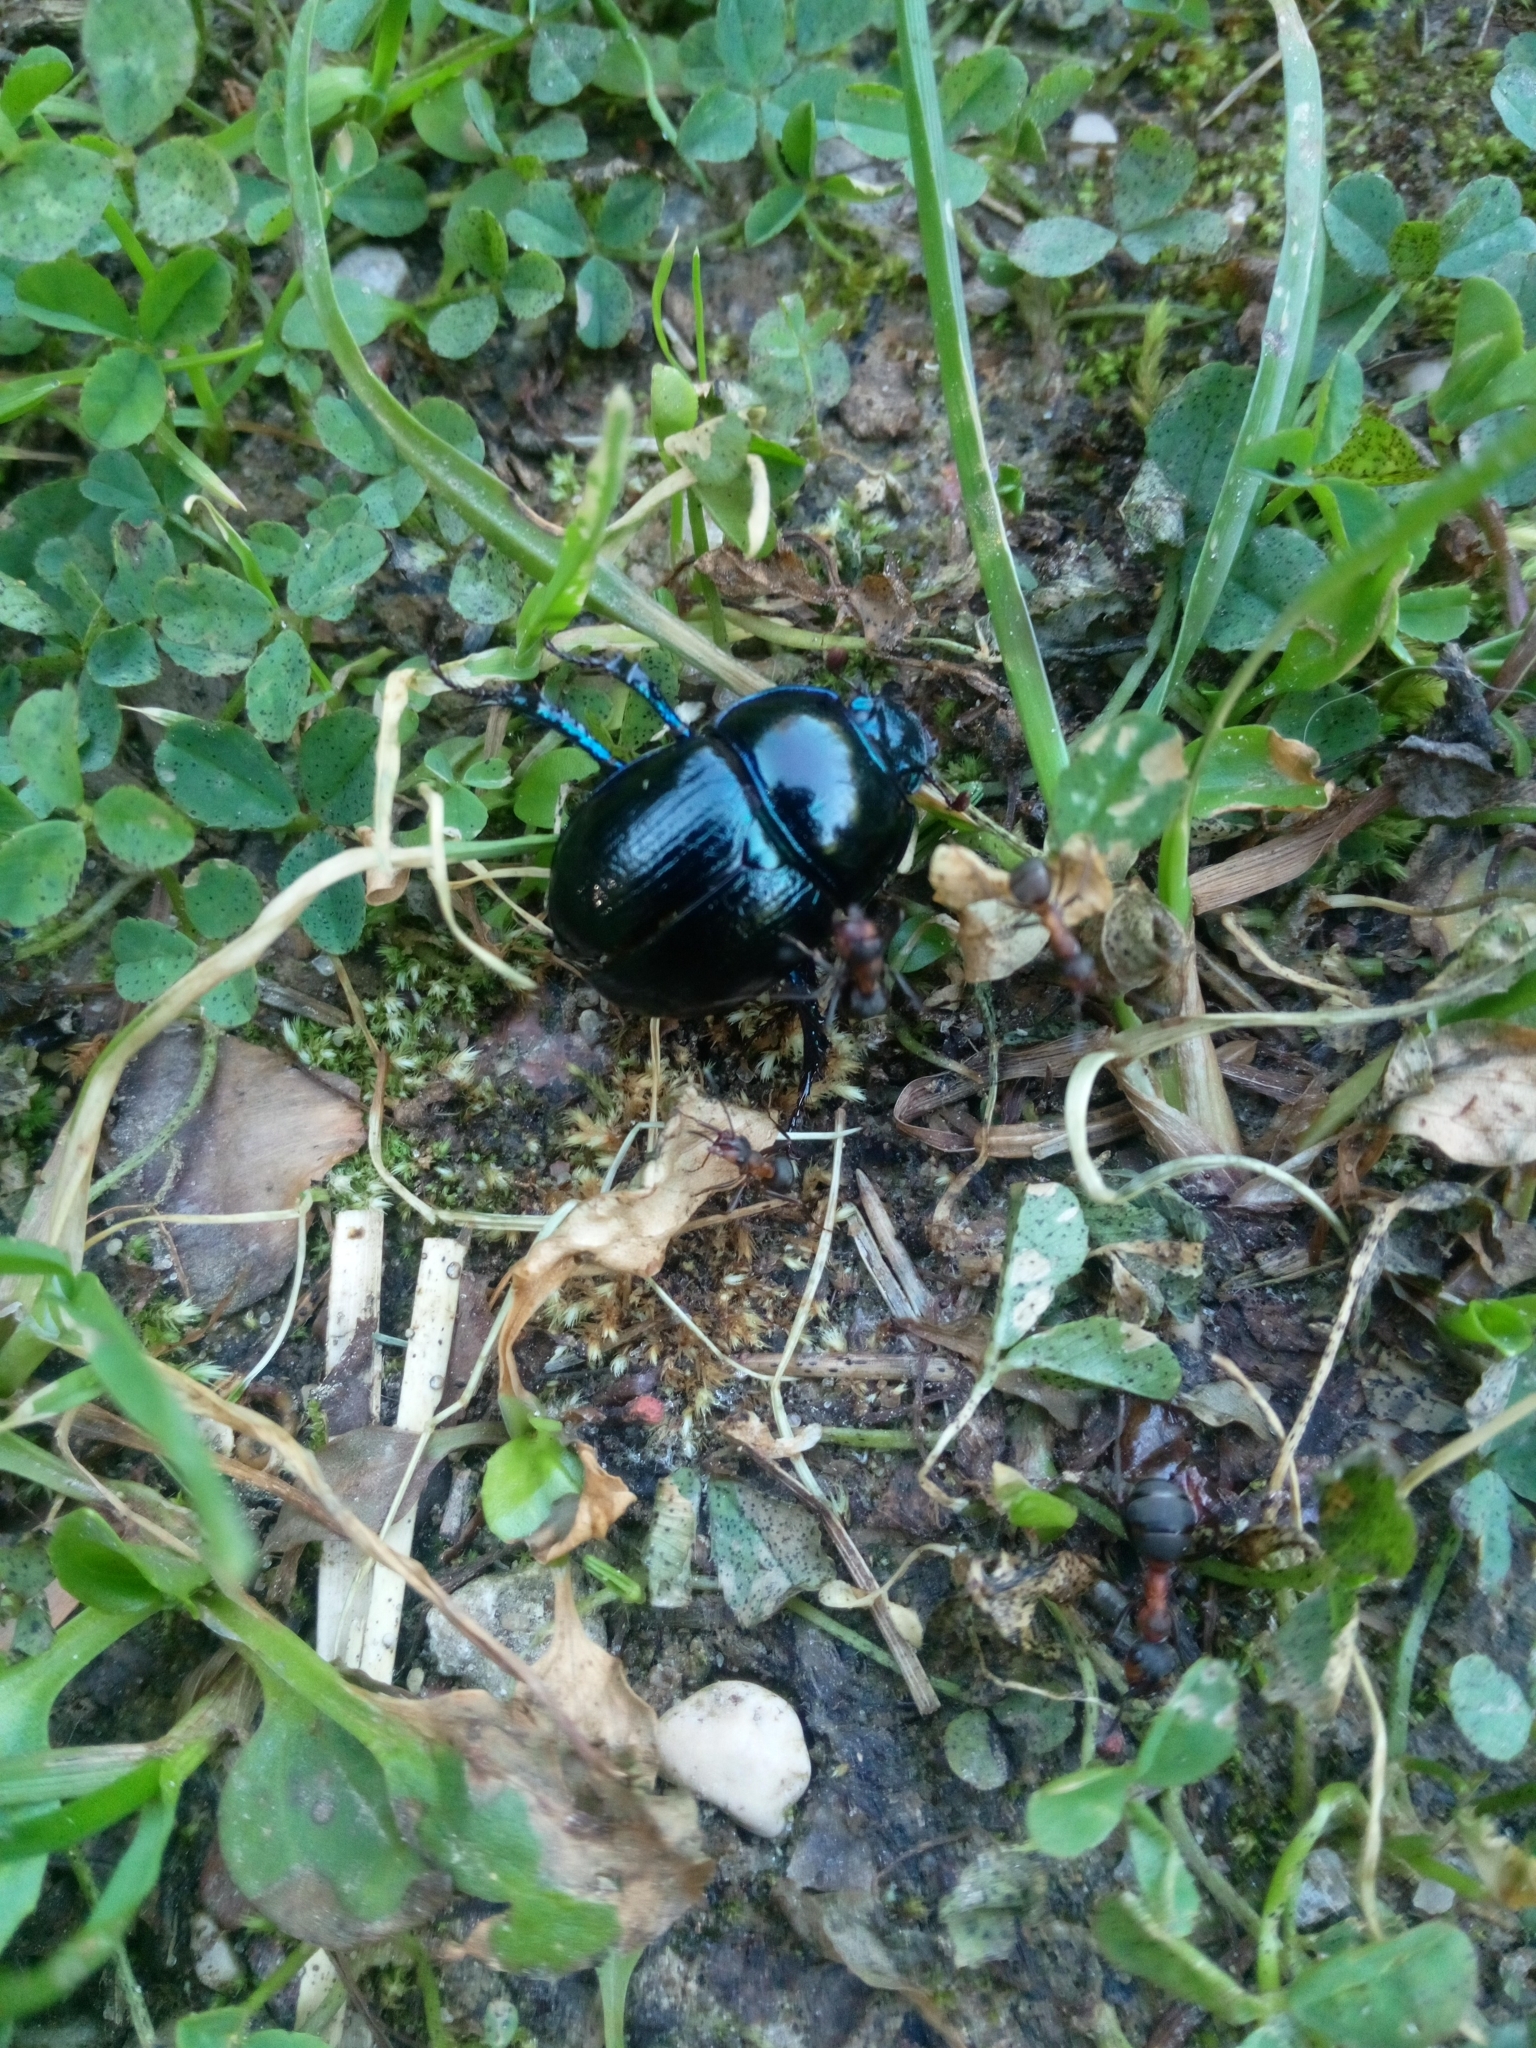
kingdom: Animalia
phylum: Arthropoda
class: Insecta
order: Coleoptera
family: Geotrupidae
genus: Anoplotrupes
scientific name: Anoplotrupes stercorosus
